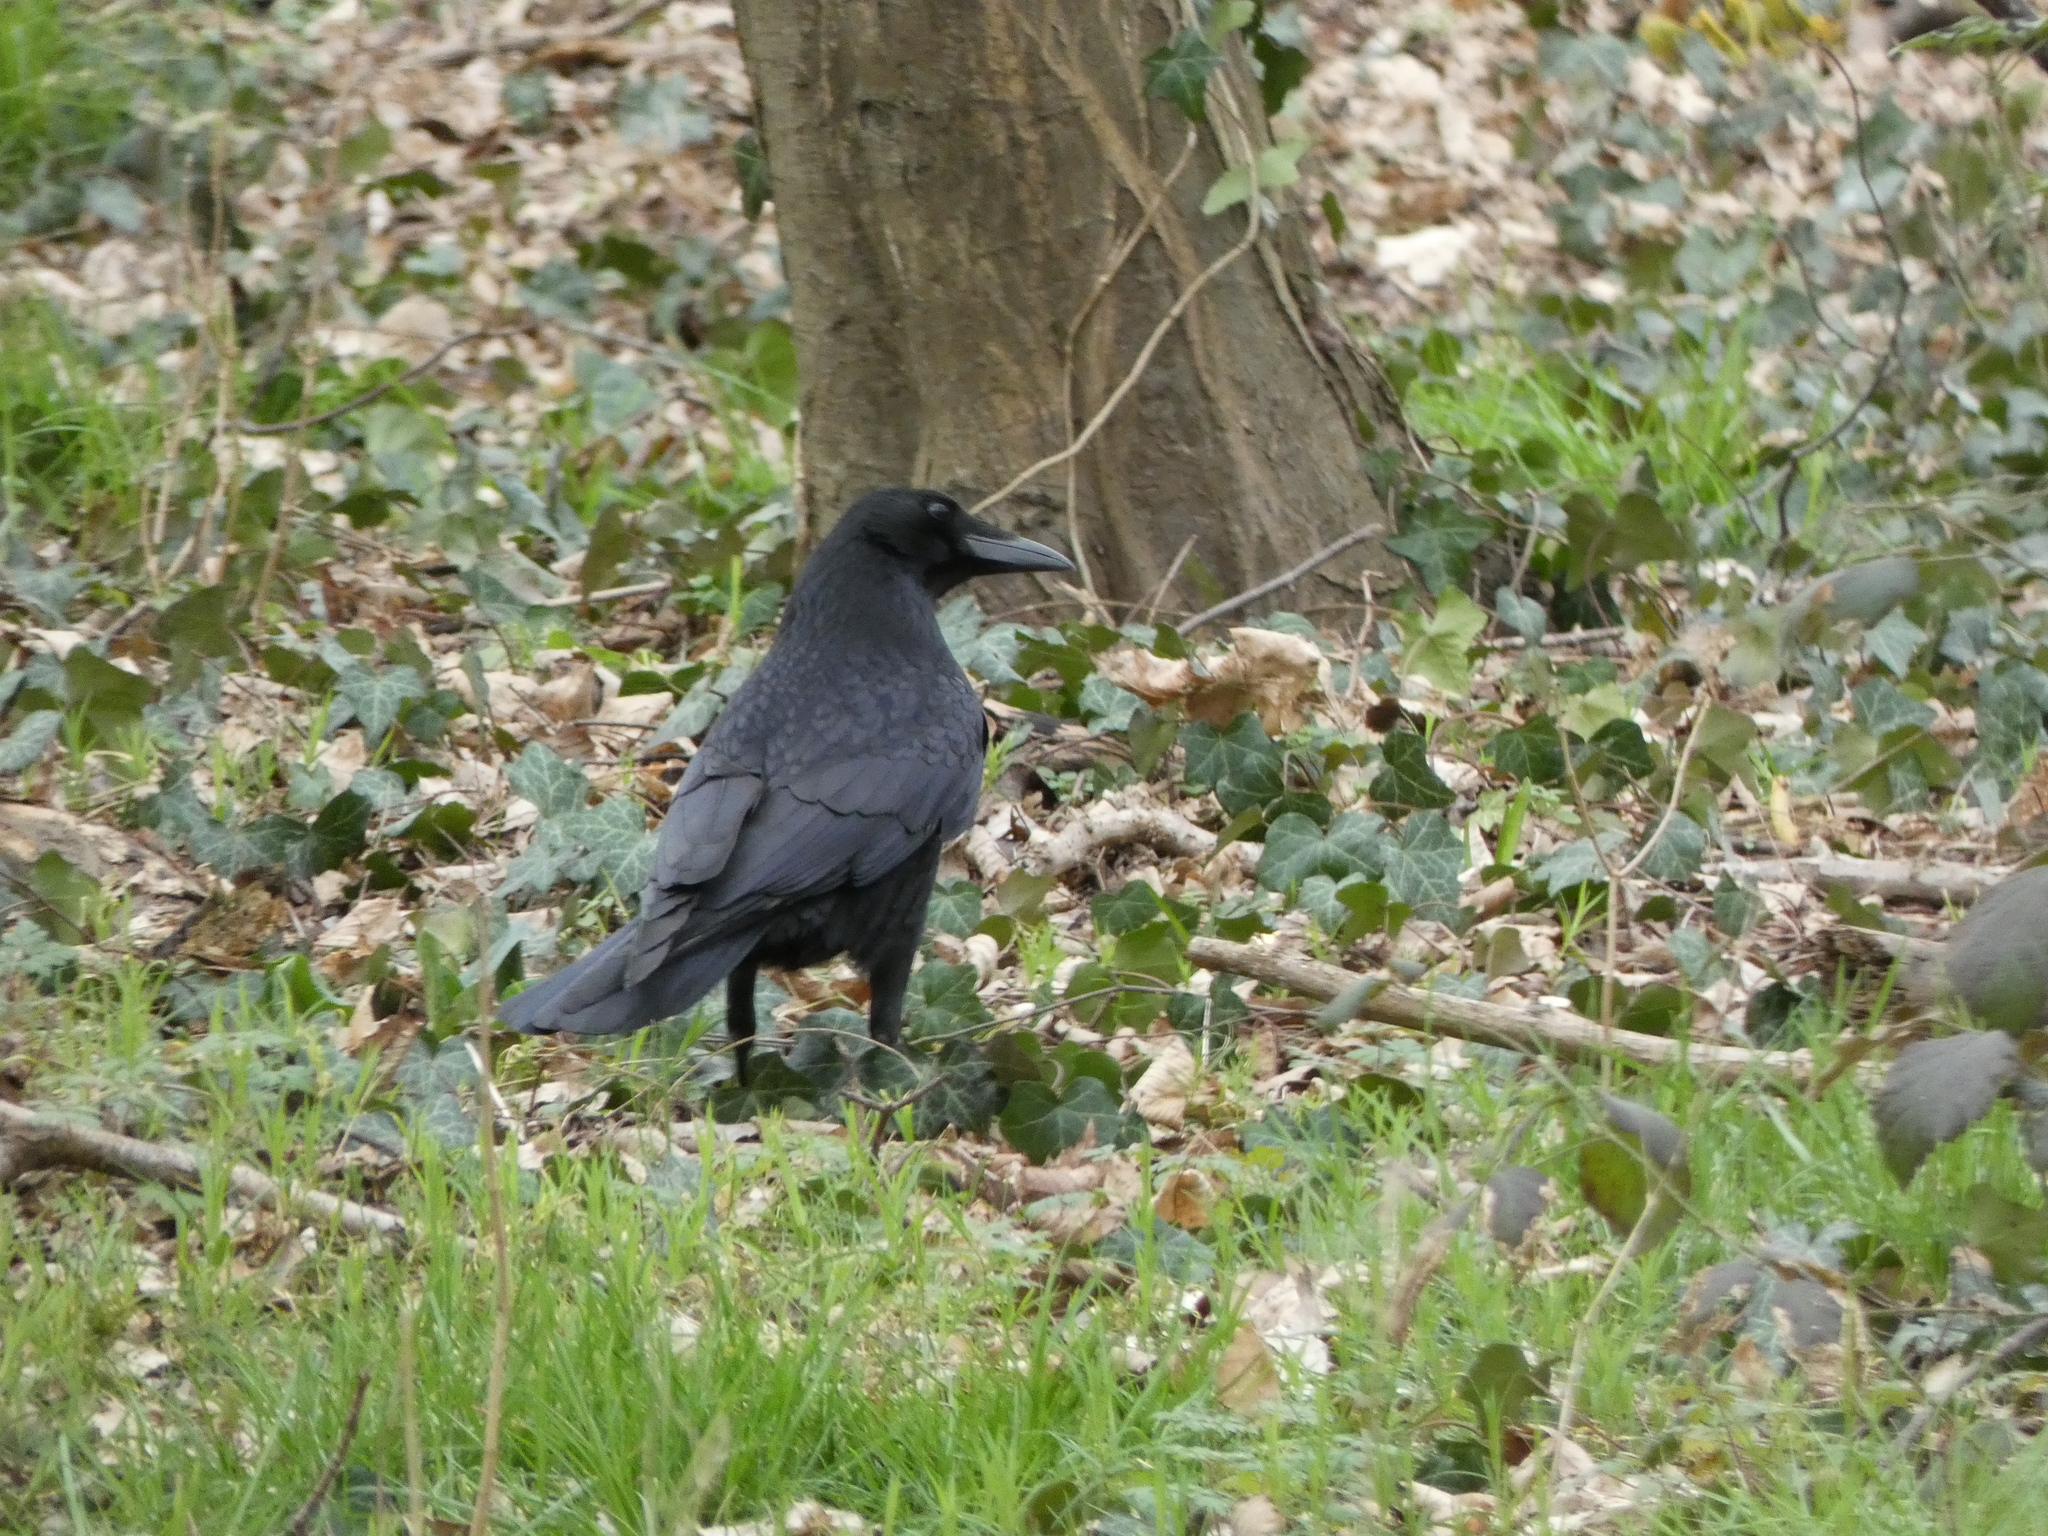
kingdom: Animalia
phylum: Chordata
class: Aves
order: Passeriformes
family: Corvidae
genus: Corvus
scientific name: Corvus corone
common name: Carrion crow
